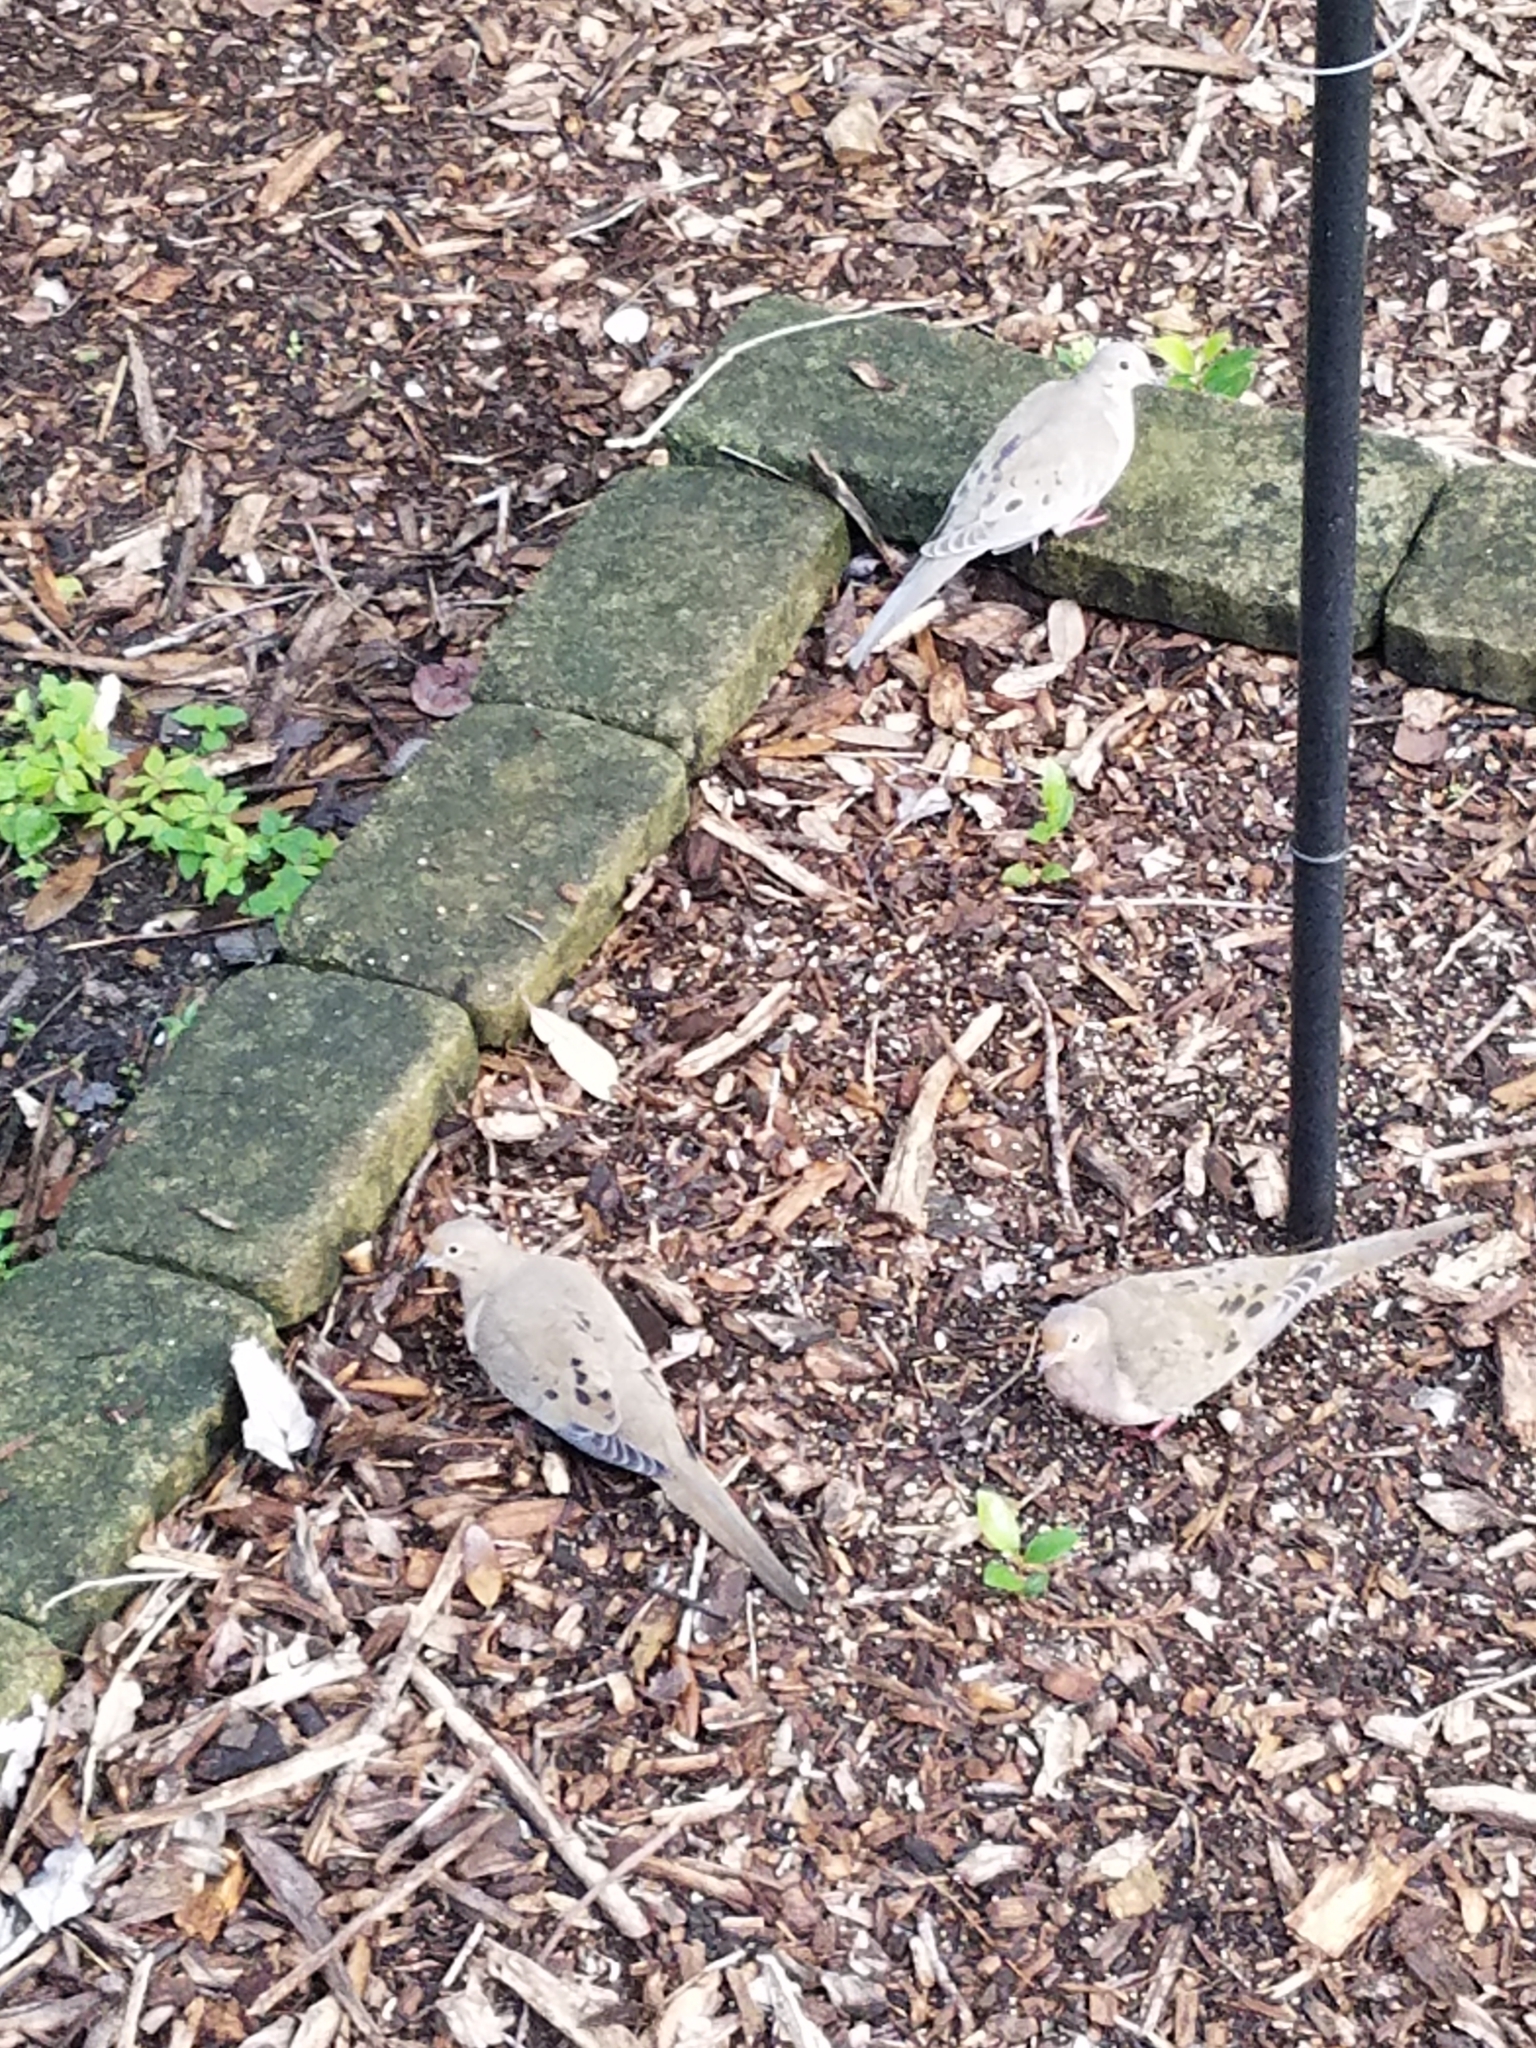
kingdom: Animalia
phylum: Chordata
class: Aves
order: Columbiformes
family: Columbidae
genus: Zenaida
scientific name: Zenaida macroura
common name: Mourning dove
